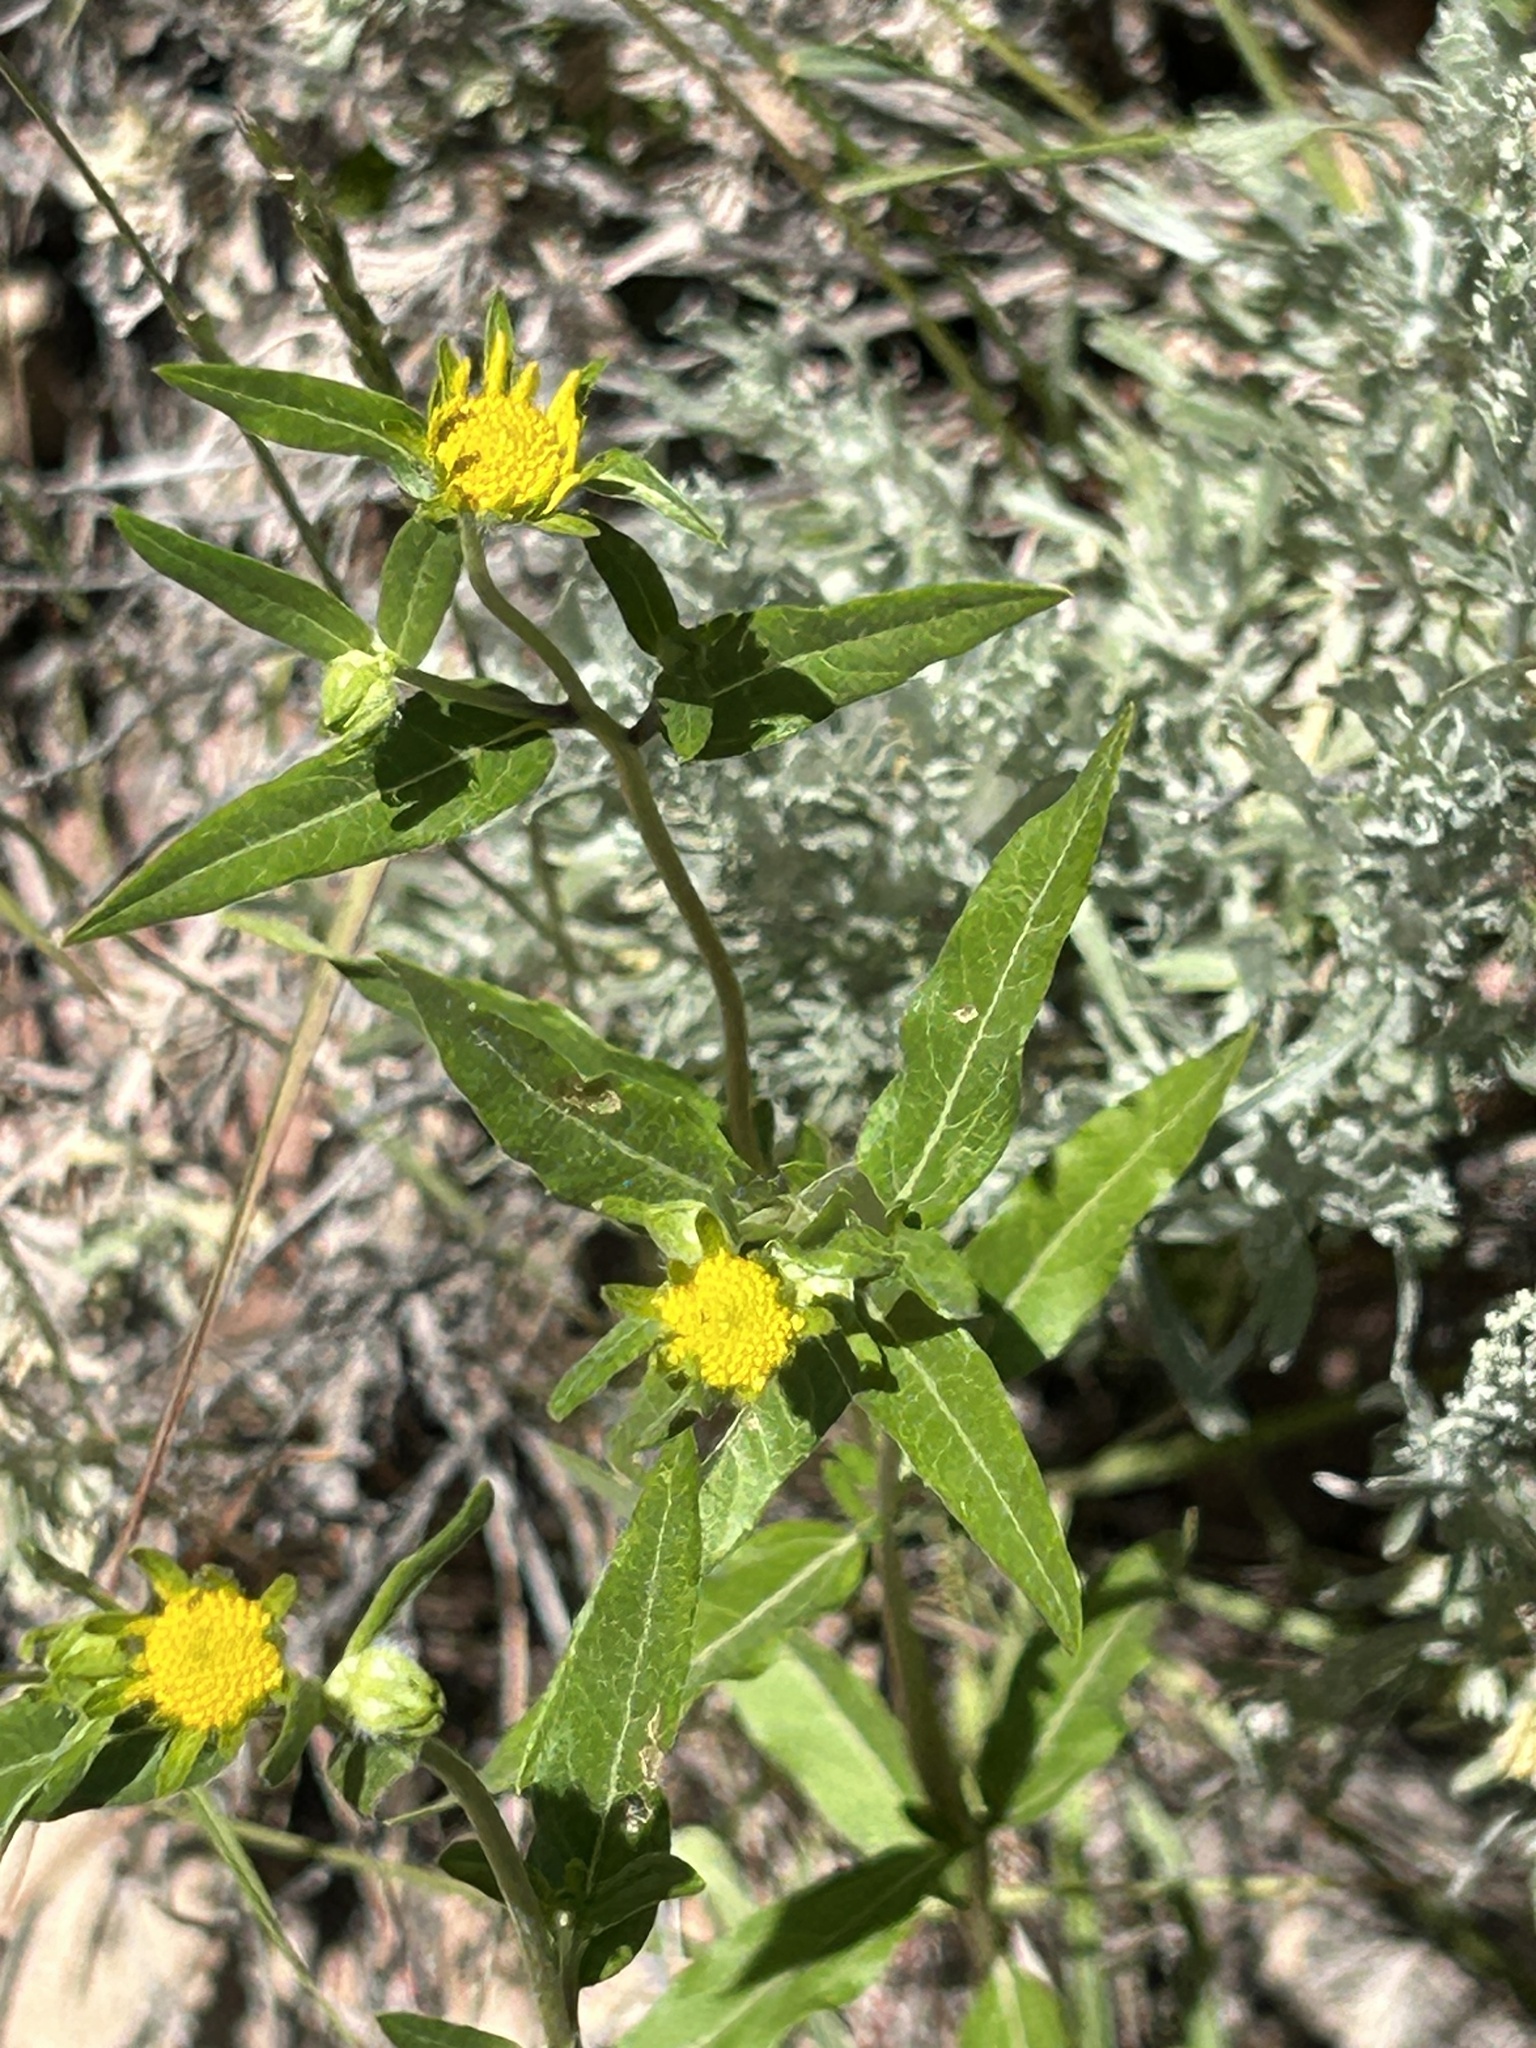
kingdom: Plantae
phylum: Tracheophyta
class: Magnoliopsida
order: Asterales
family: Asteraceae
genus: Heliomeris
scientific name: Heliomeris multiflora
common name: Showy goldeneye
